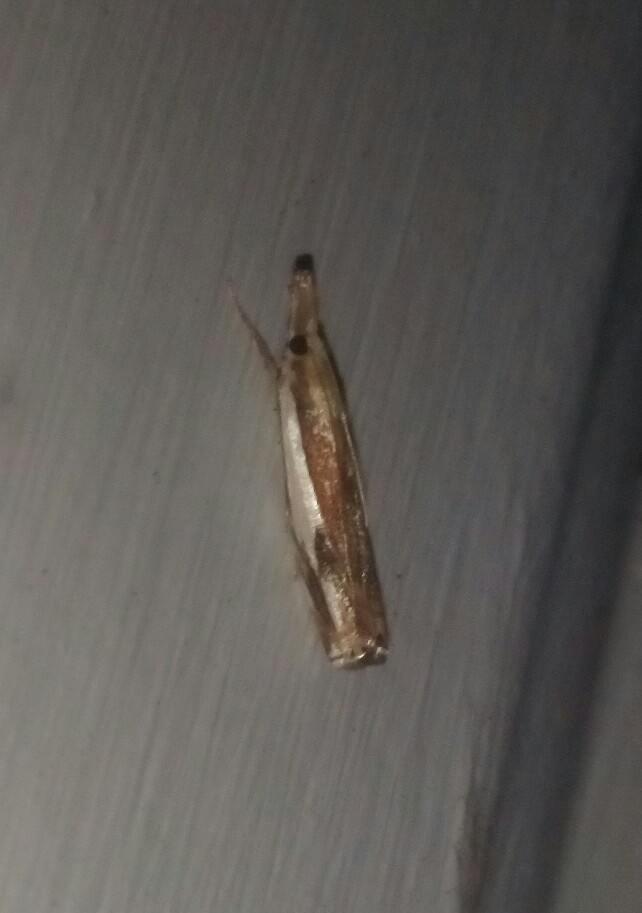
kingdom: Animalia
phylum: Arthropoda
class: Insecta
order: Lepidoptera
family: Crambidae
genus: Crambus
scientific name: Crambus agitatellus
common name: Double-banded grass-veneer
